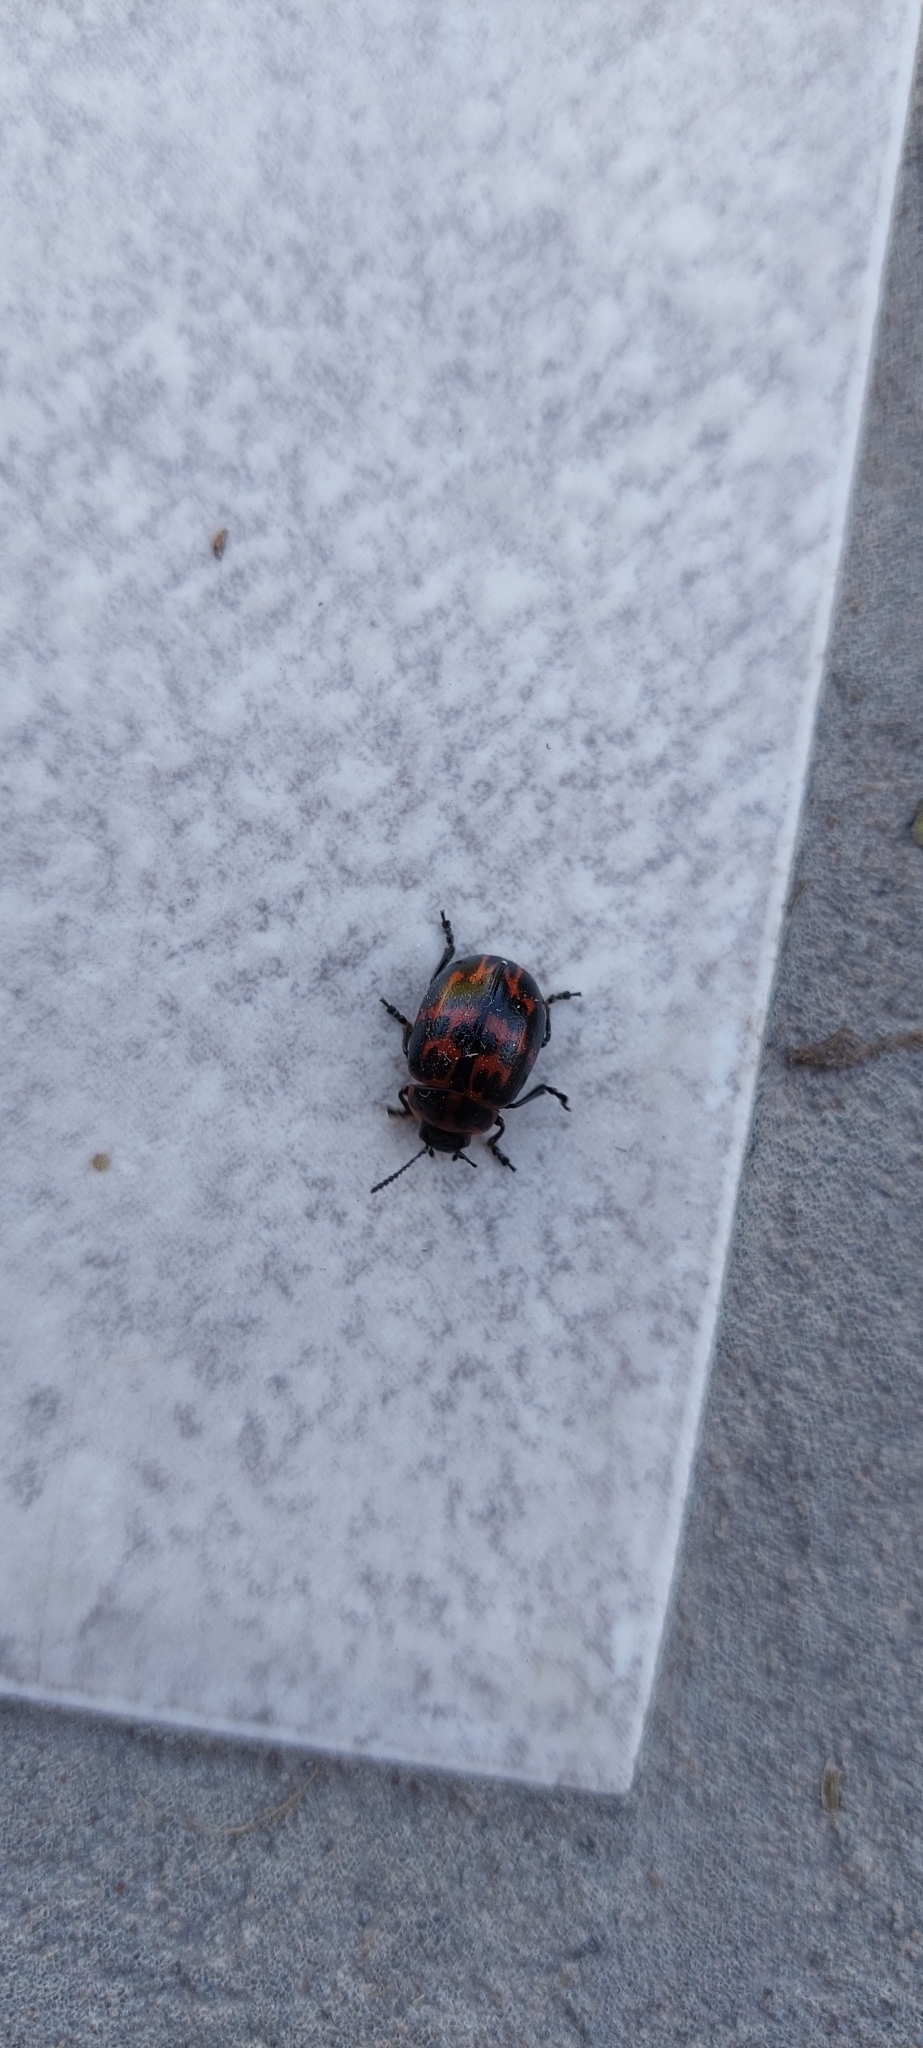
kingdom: Animalia
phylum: Arthropoda
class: Insecta
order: Coleoptera
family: Chrysomelidae
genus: Platyphora
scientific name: Platyphora
